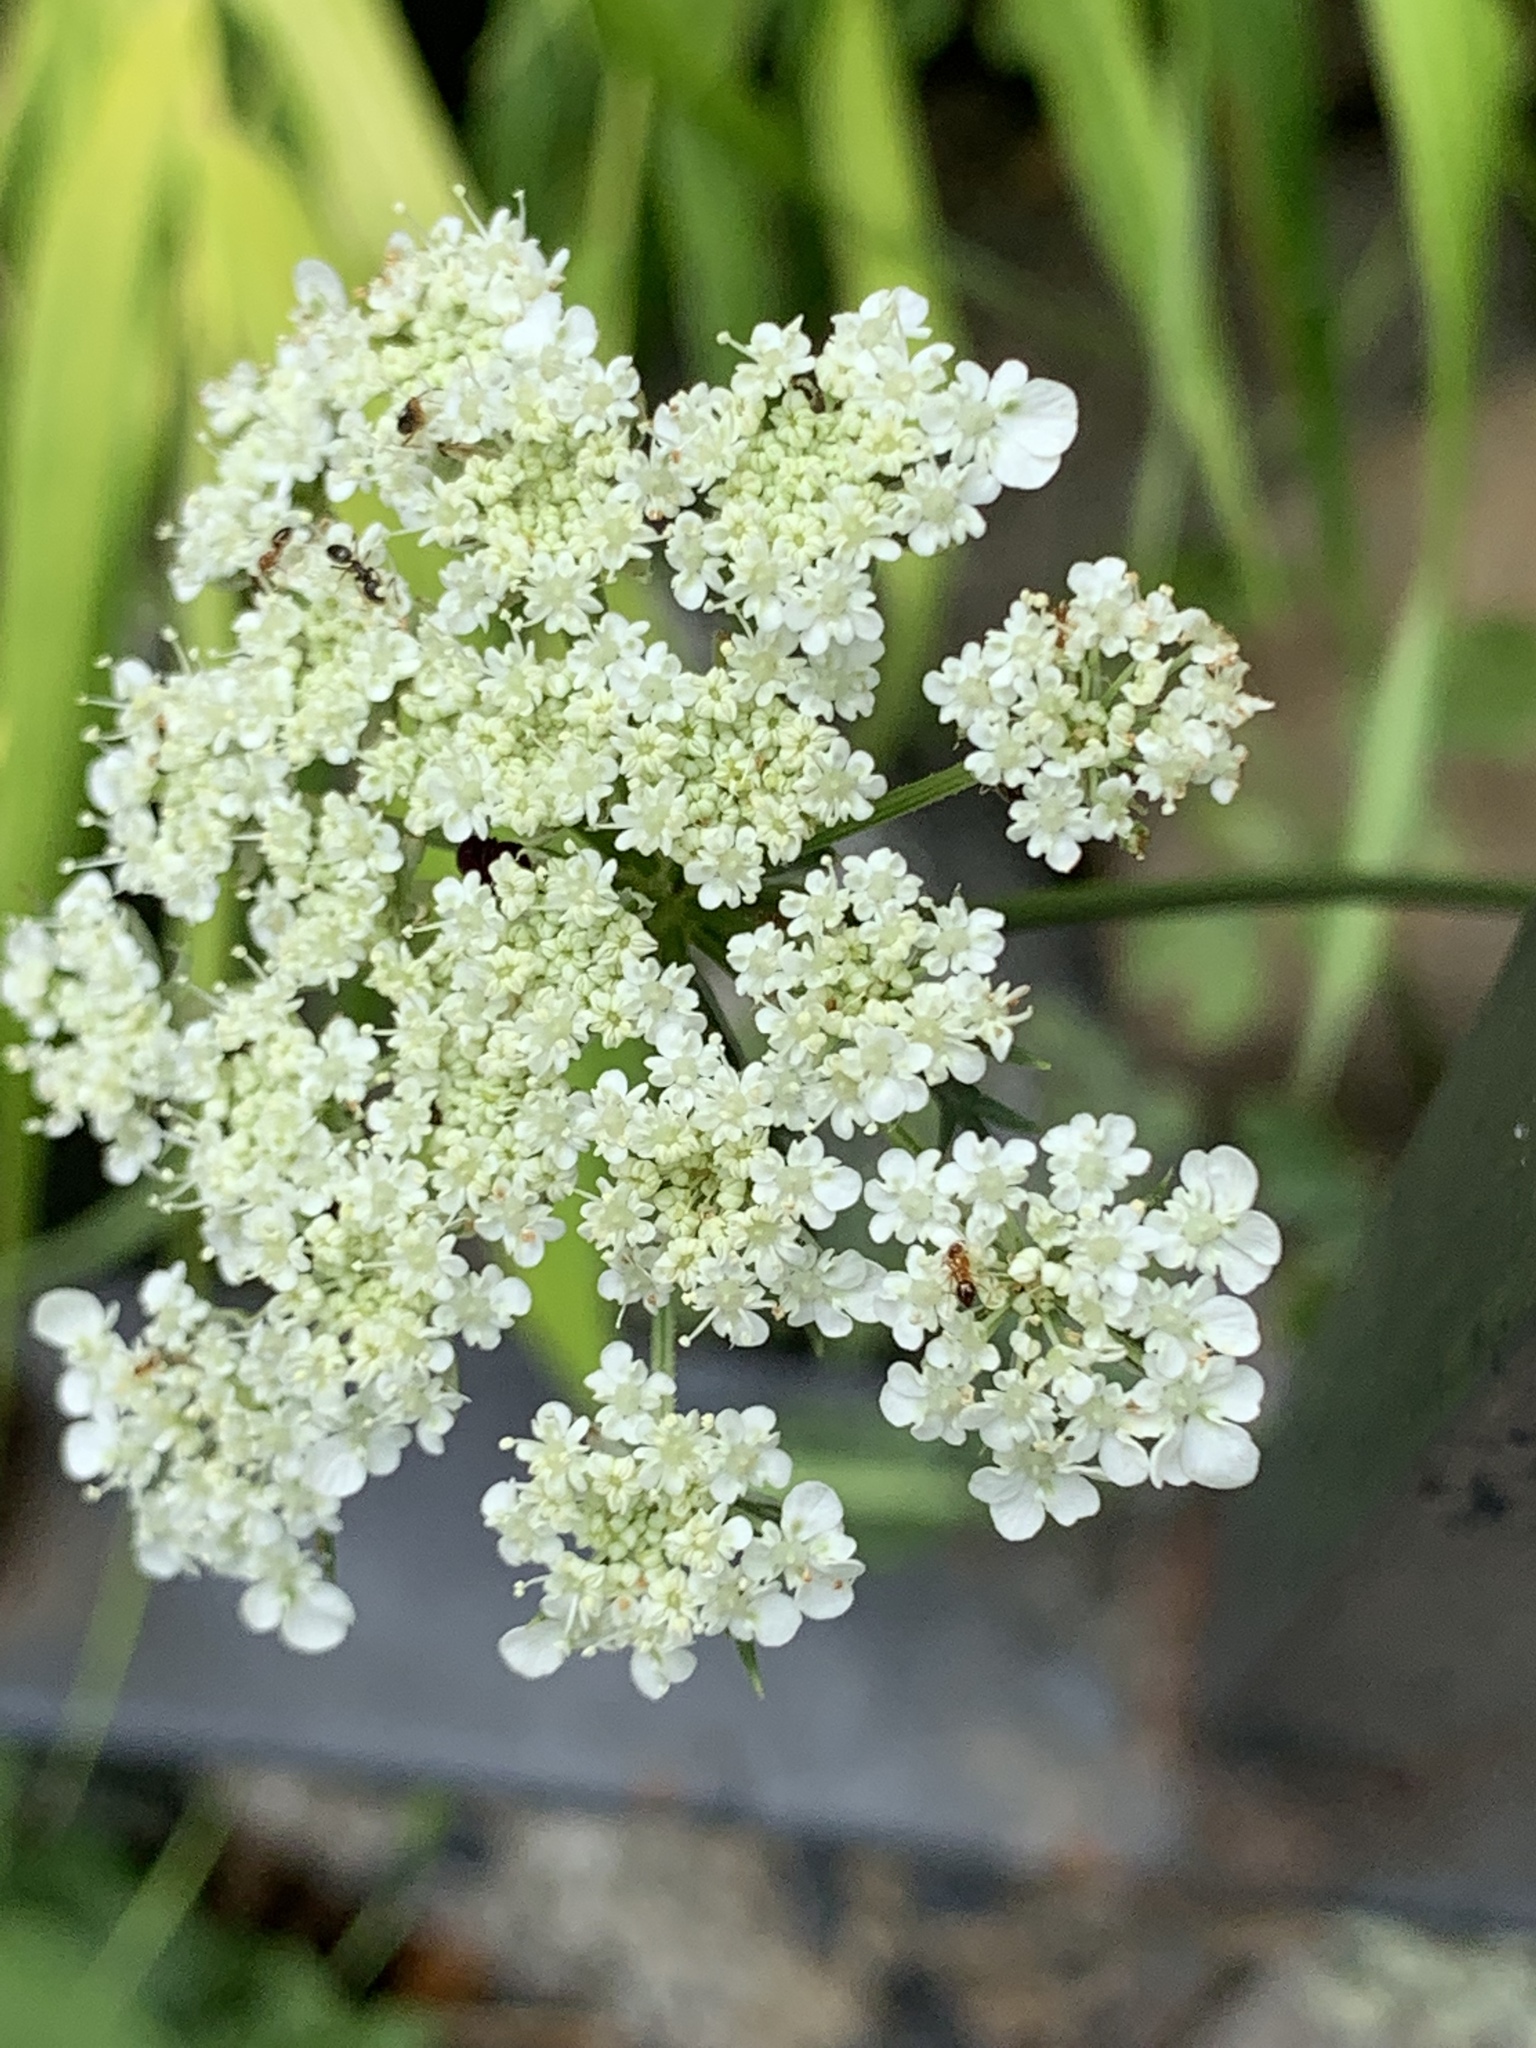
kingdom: Plantae
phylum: Tracheophyta
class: Magnoliopsida
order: Apiales
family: Apiaceae
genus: Daucus
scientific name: Daucus carota
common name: Wild carrot
